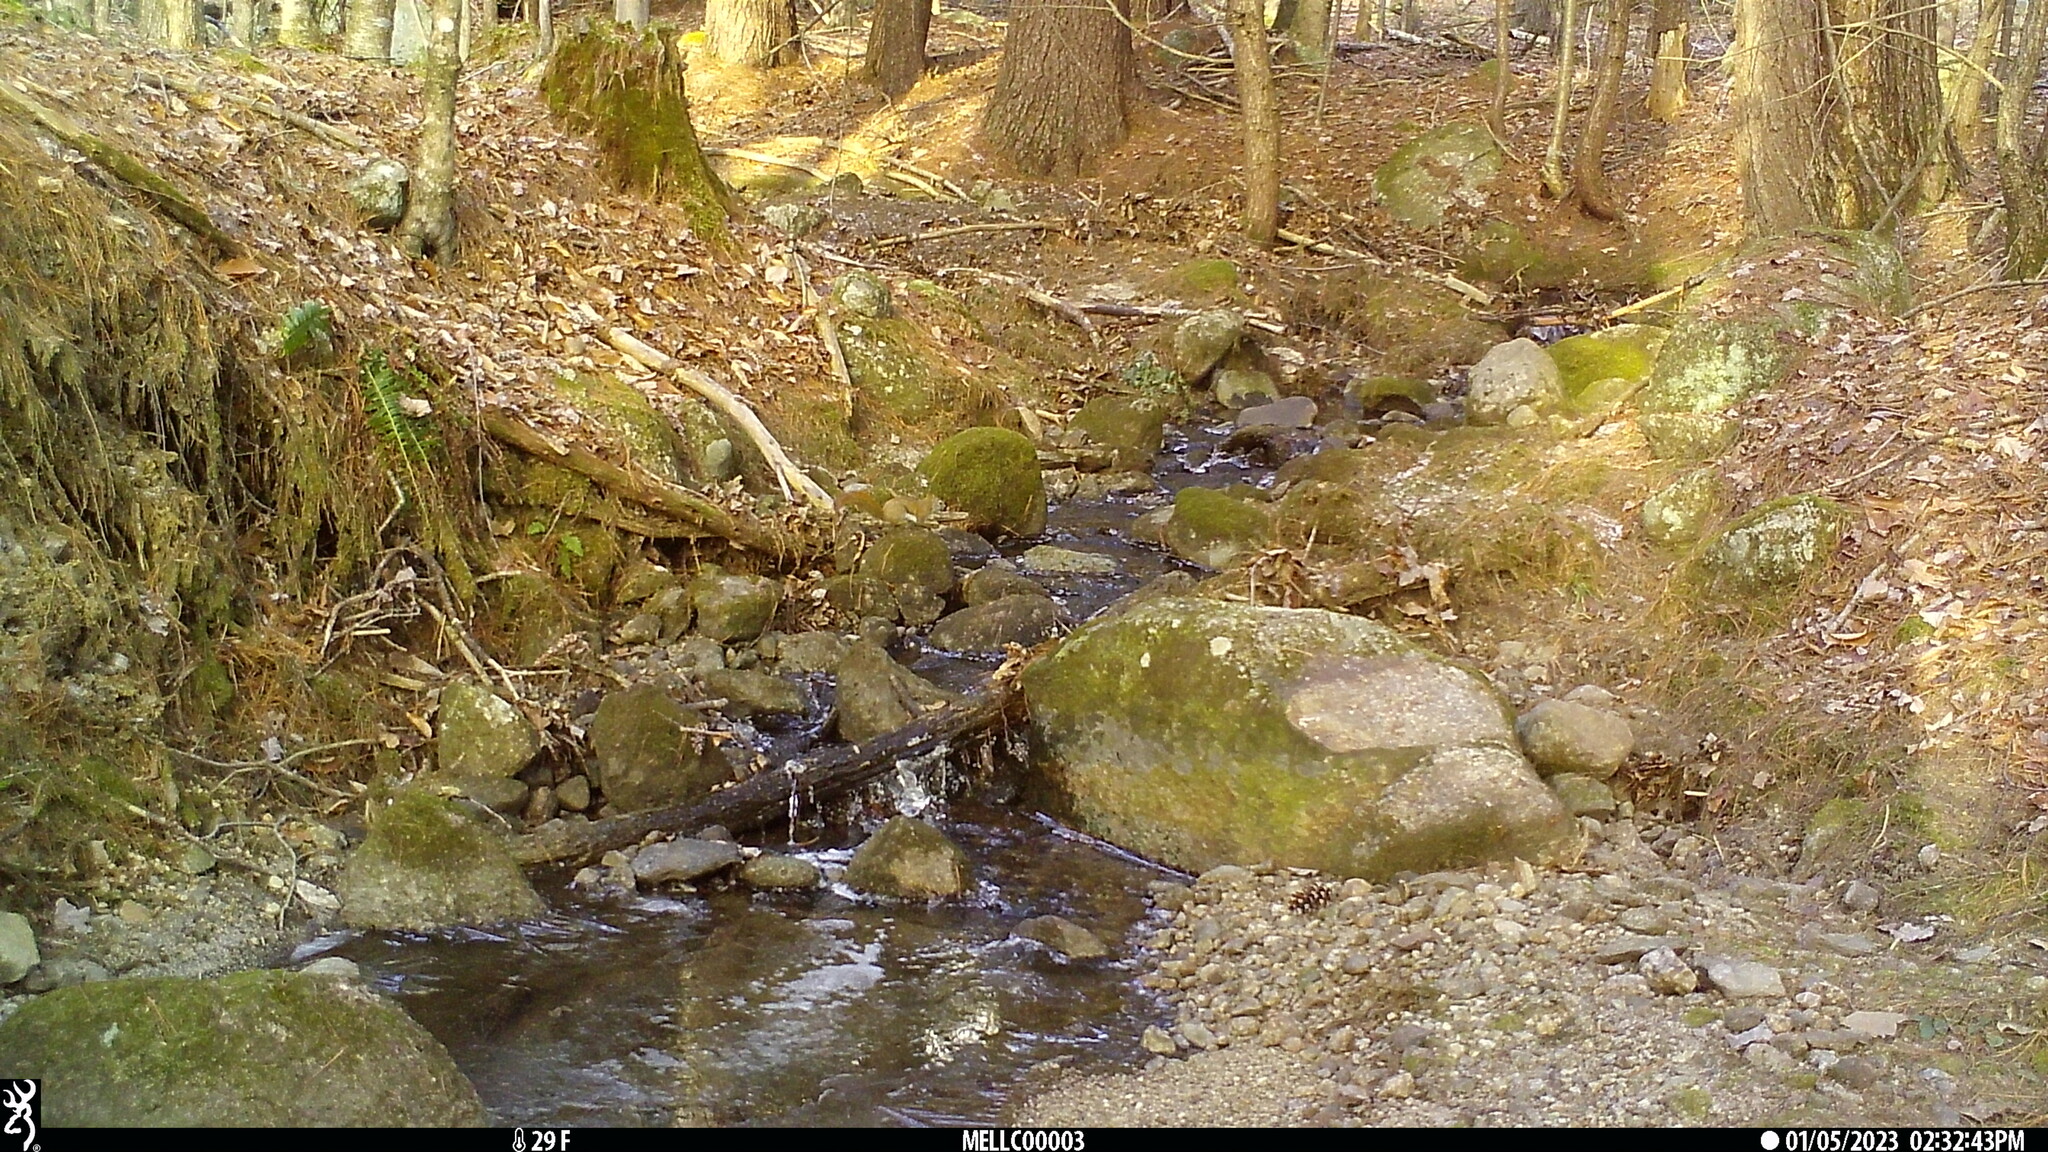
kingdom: Animalia
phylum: Chordata
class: Mammalia
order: Rodentia
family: Sciuridae
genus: Tamiasciurus
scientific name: Tamiasciurus hudsonicus
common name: Red squirrel
